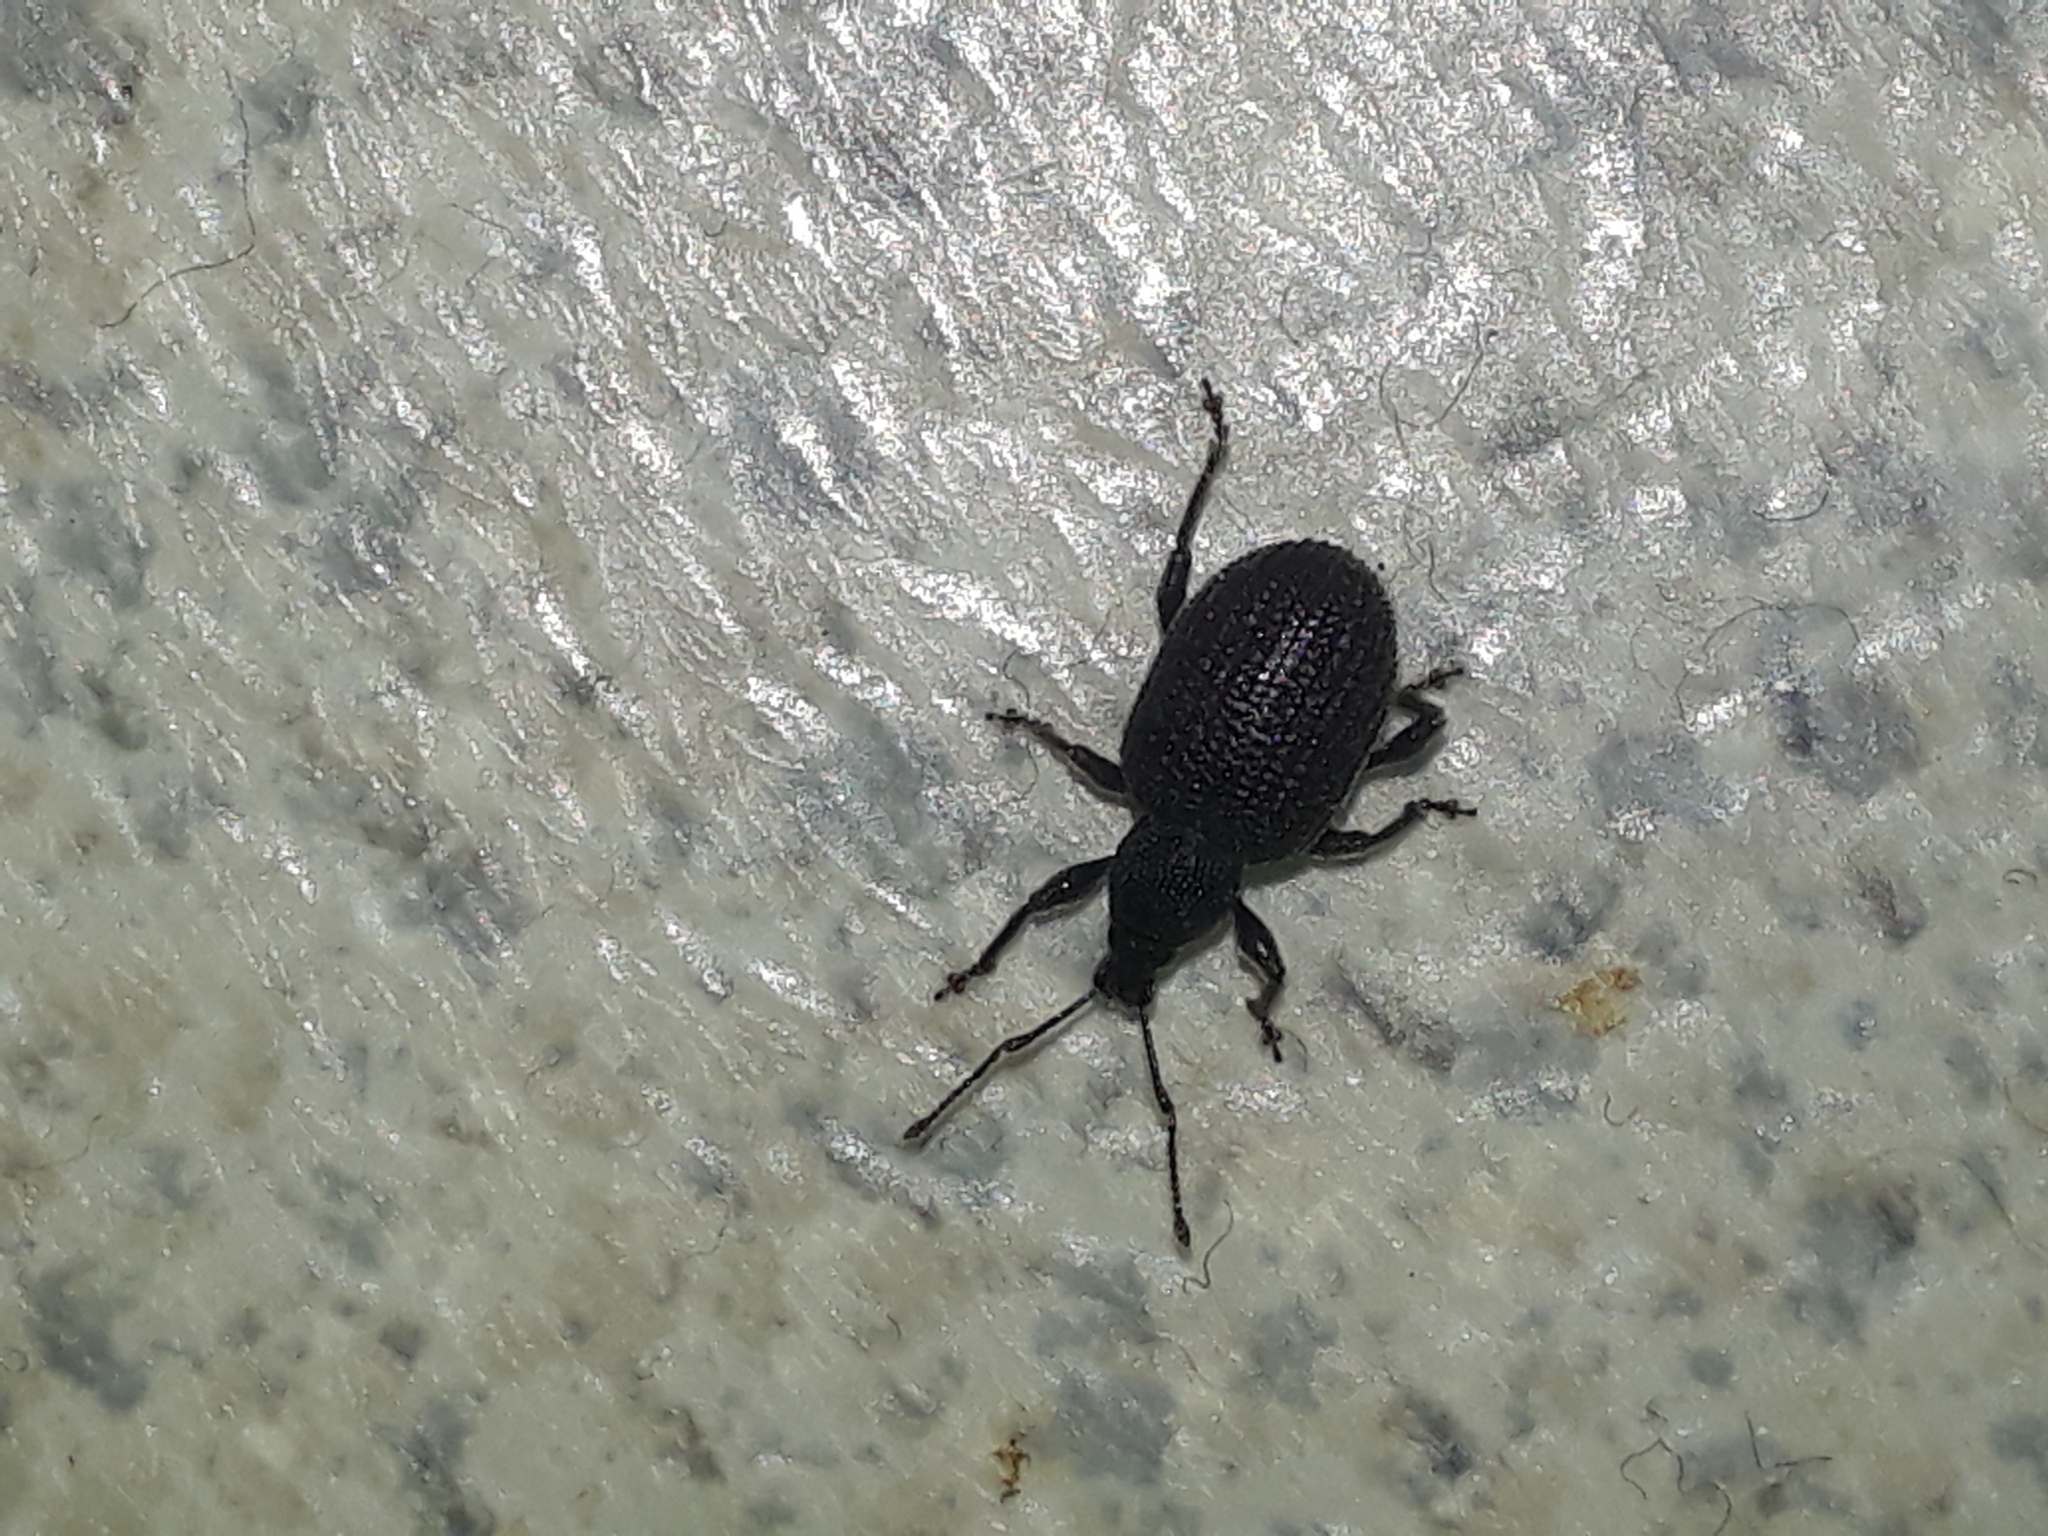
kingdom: Animalia
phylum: Arthropoda
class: Insecta
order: Coleoptera
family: Curculionidae
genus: Otiorhynchus
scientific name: Otiorhynchus rugosostriatus
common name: Weevil
